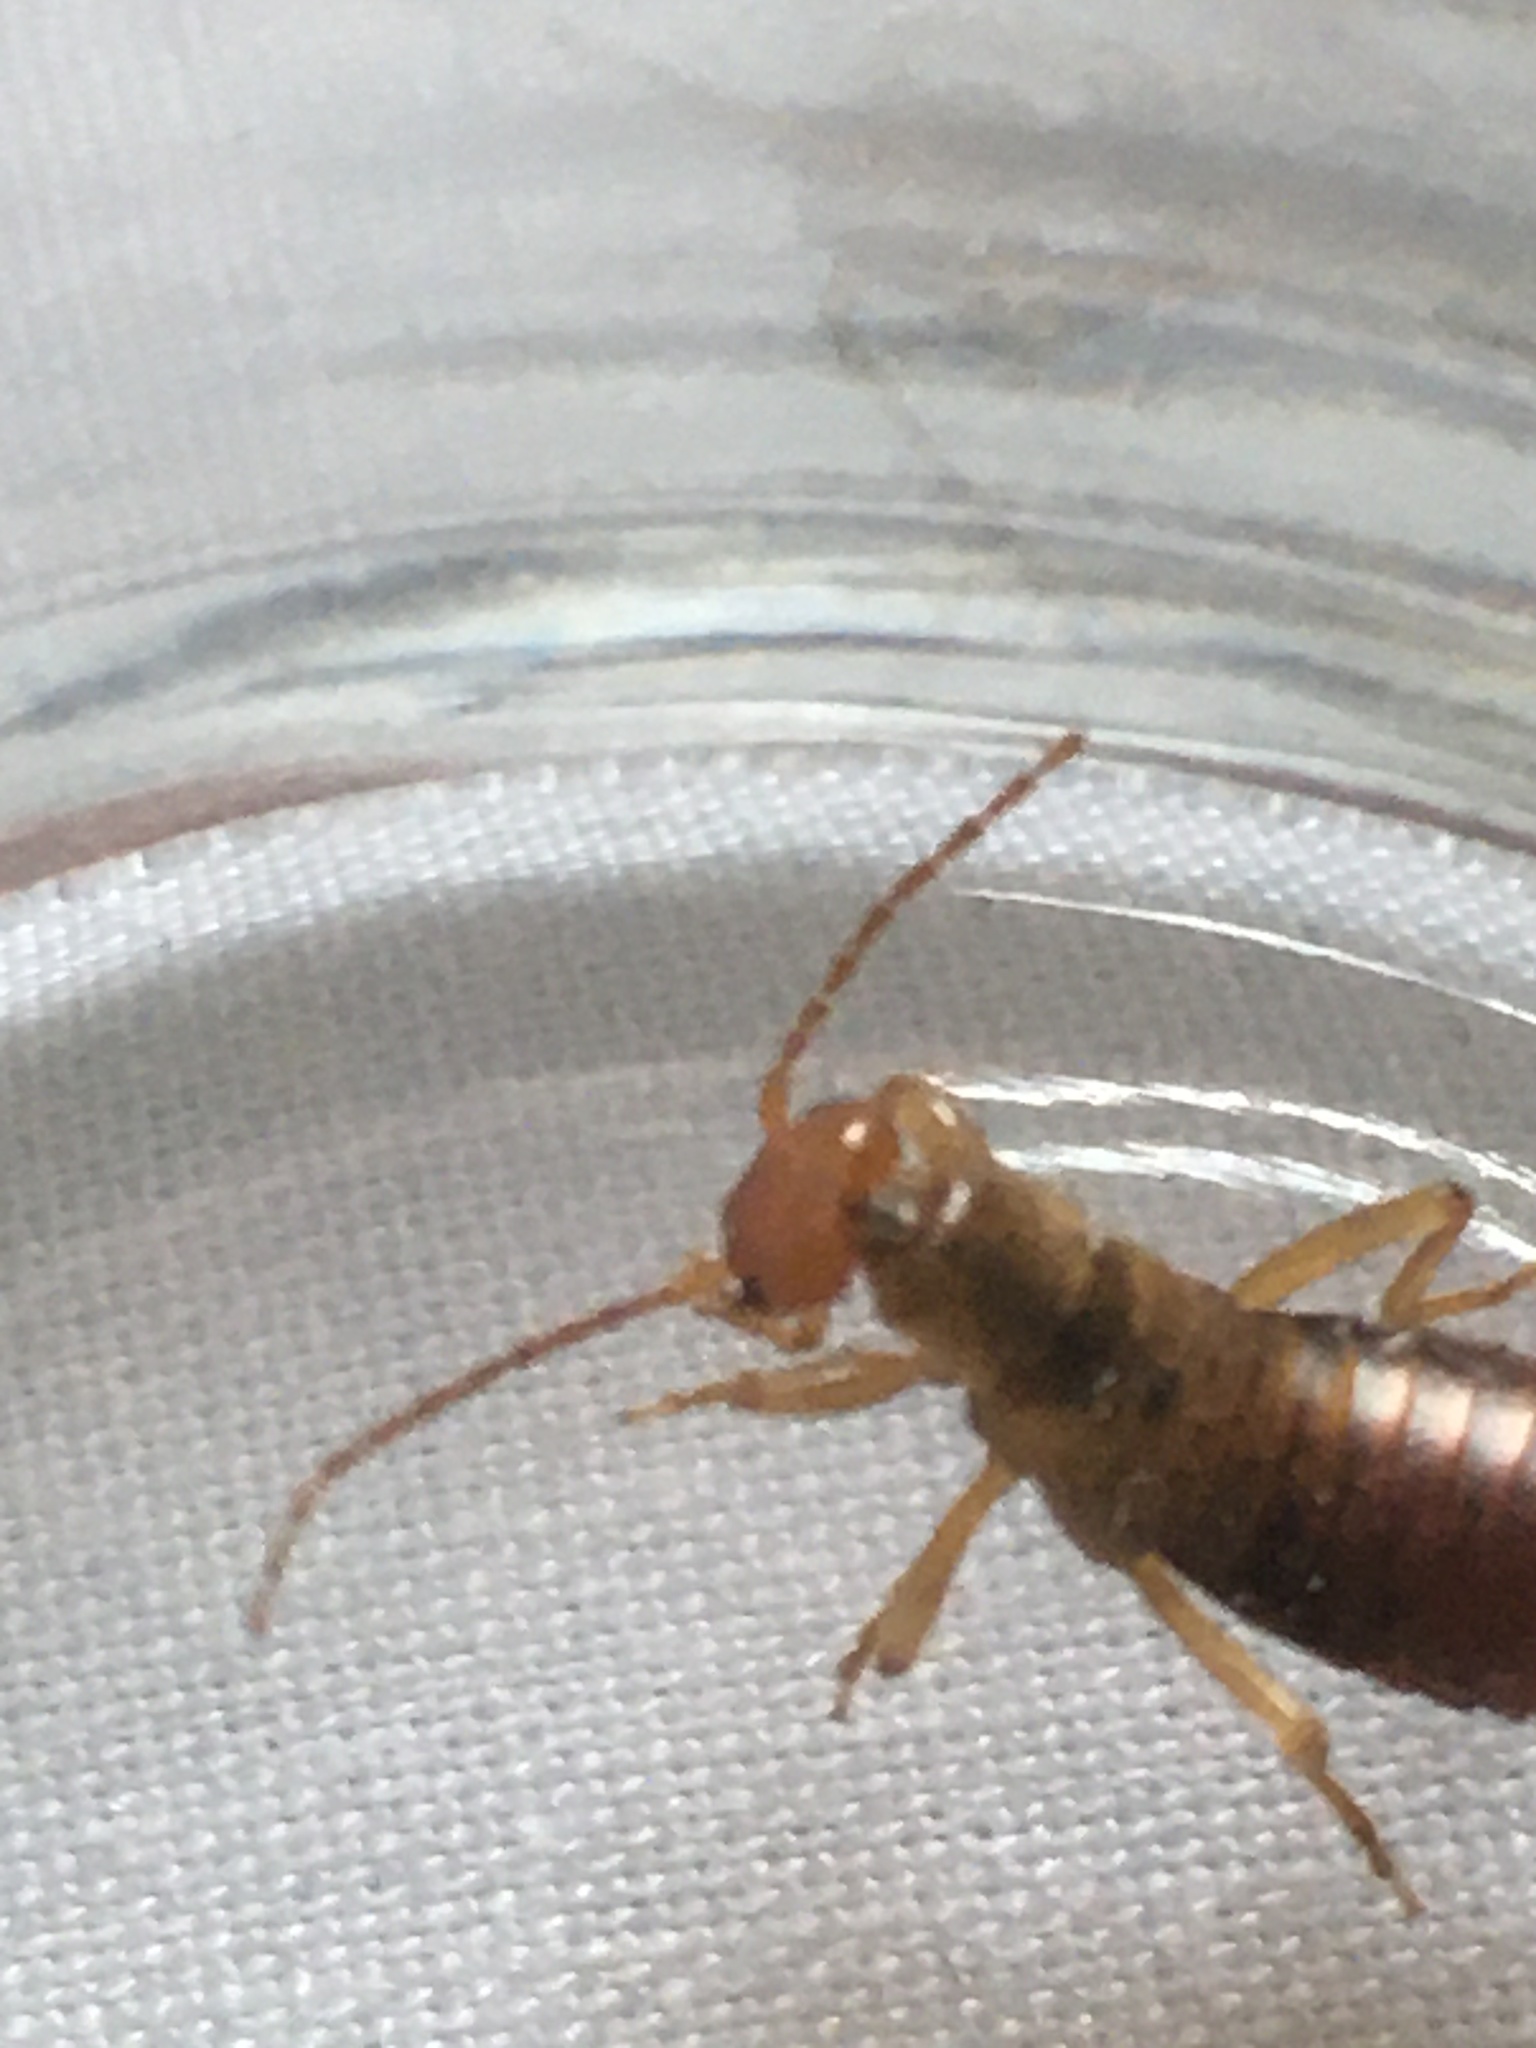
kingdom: Animalia
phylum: Arthropoda
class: Insecta
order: Dermaptera
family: Forficulidae
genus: Chelidurella
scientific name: Chelidurella acanthopygia
